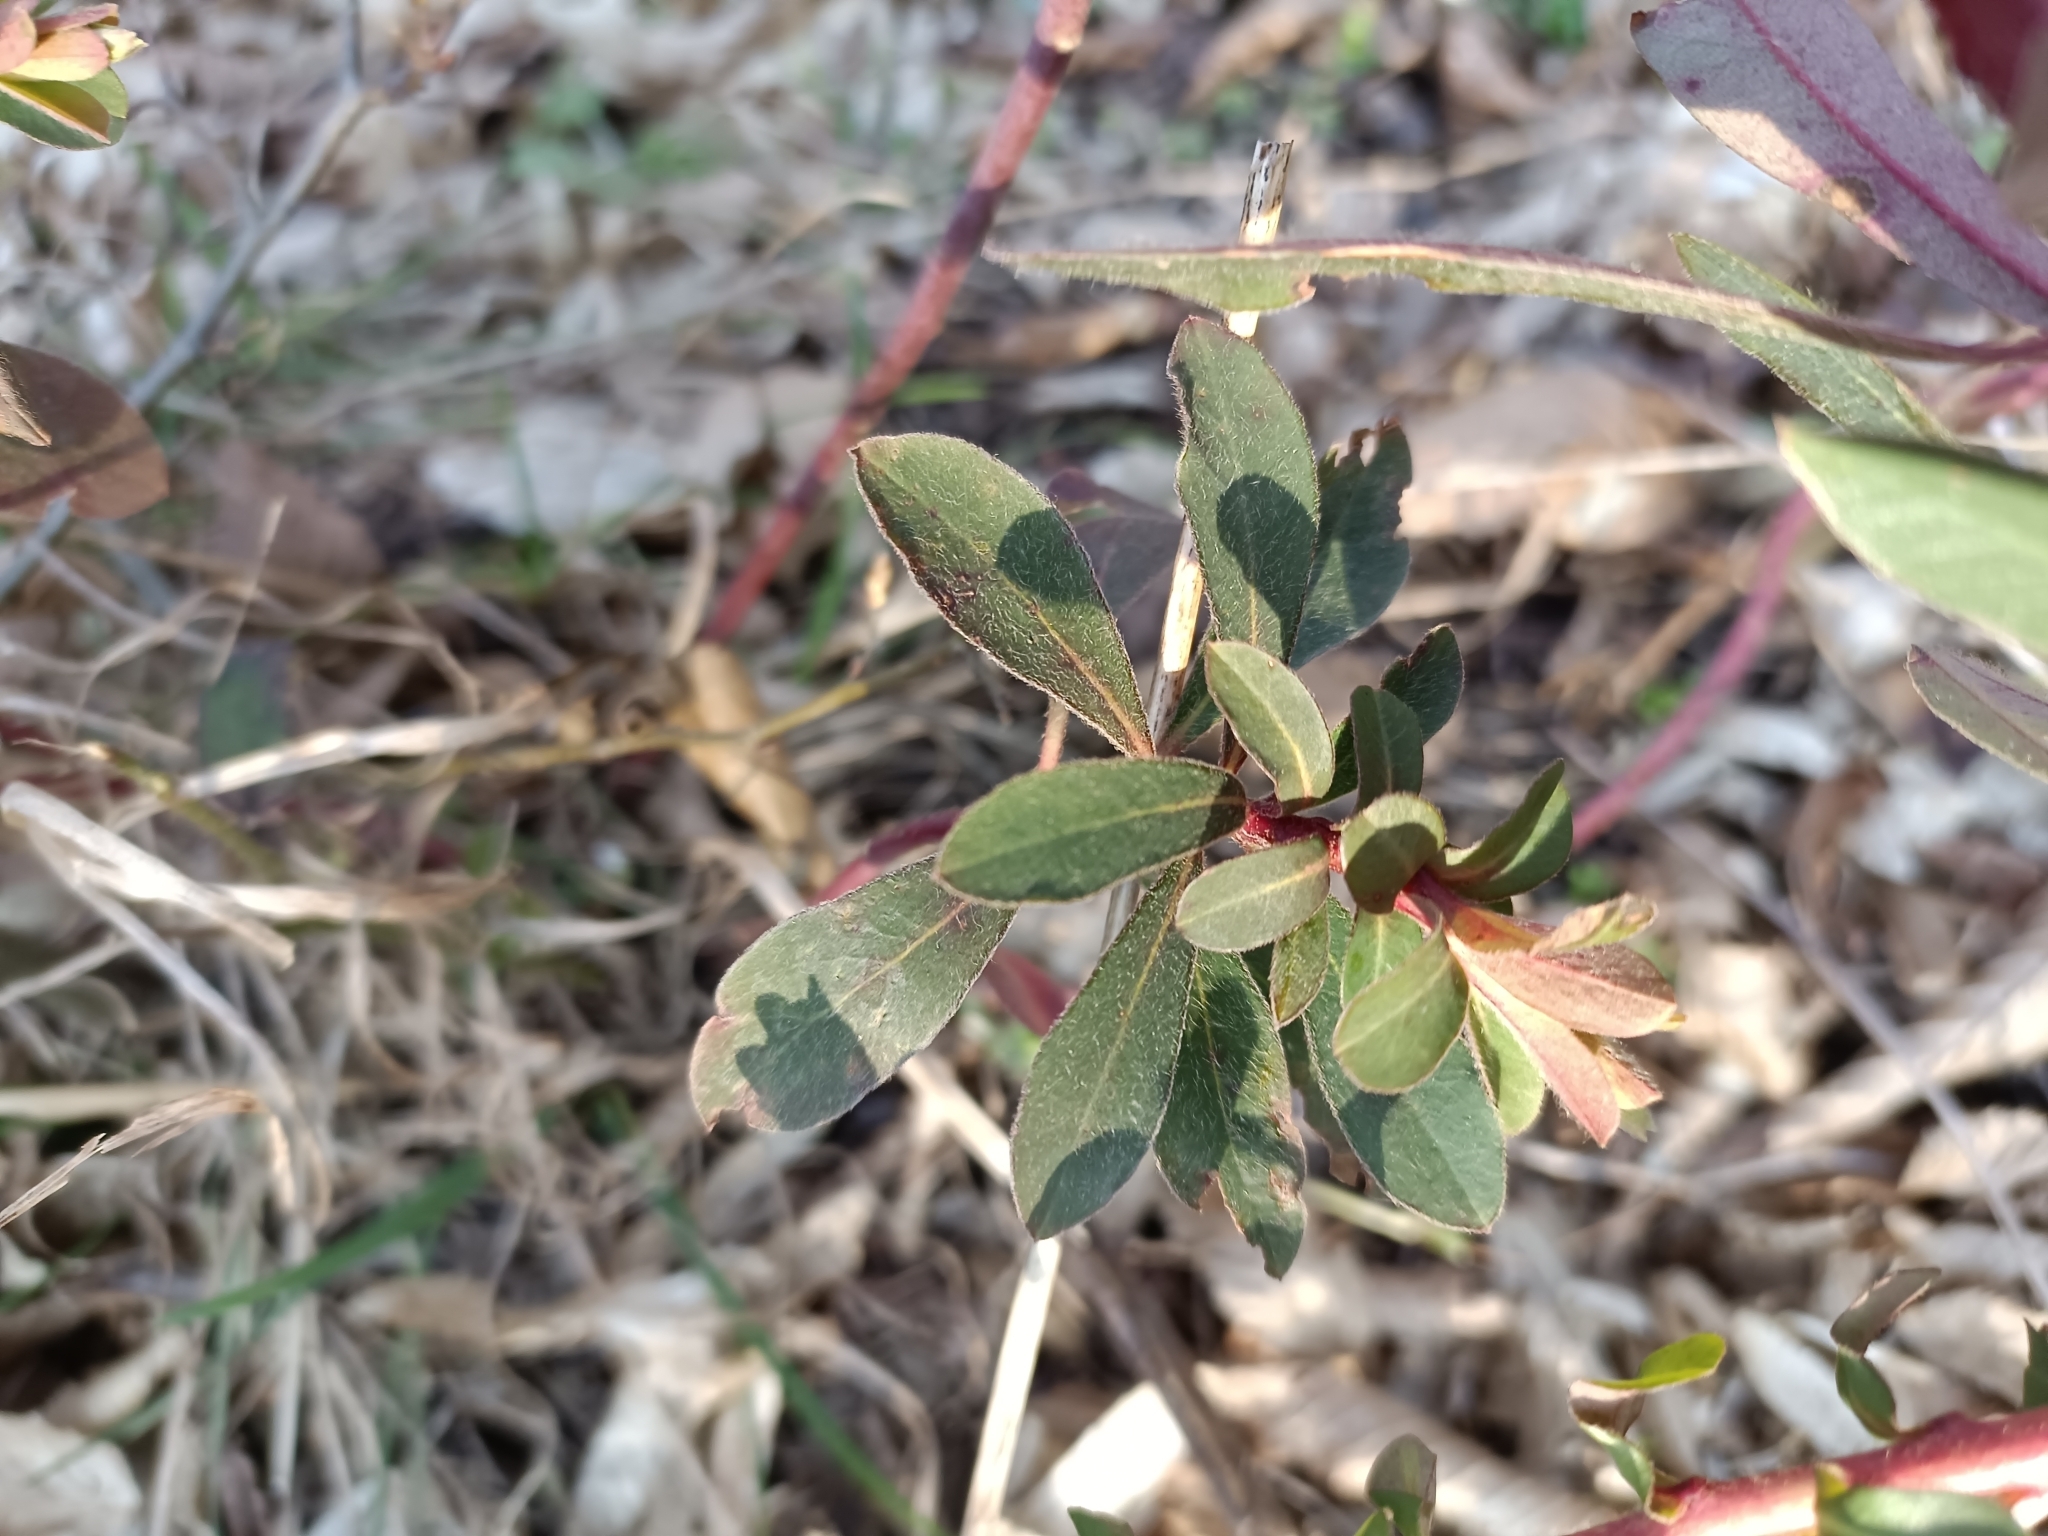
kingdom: Plantae
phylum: Tracheophyta
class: Magnoliopsida
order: Malpighiales
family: Euphorbiaceae
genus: Euphorbia
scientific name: Euphorbia amygdaloides
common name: Wood spurge
